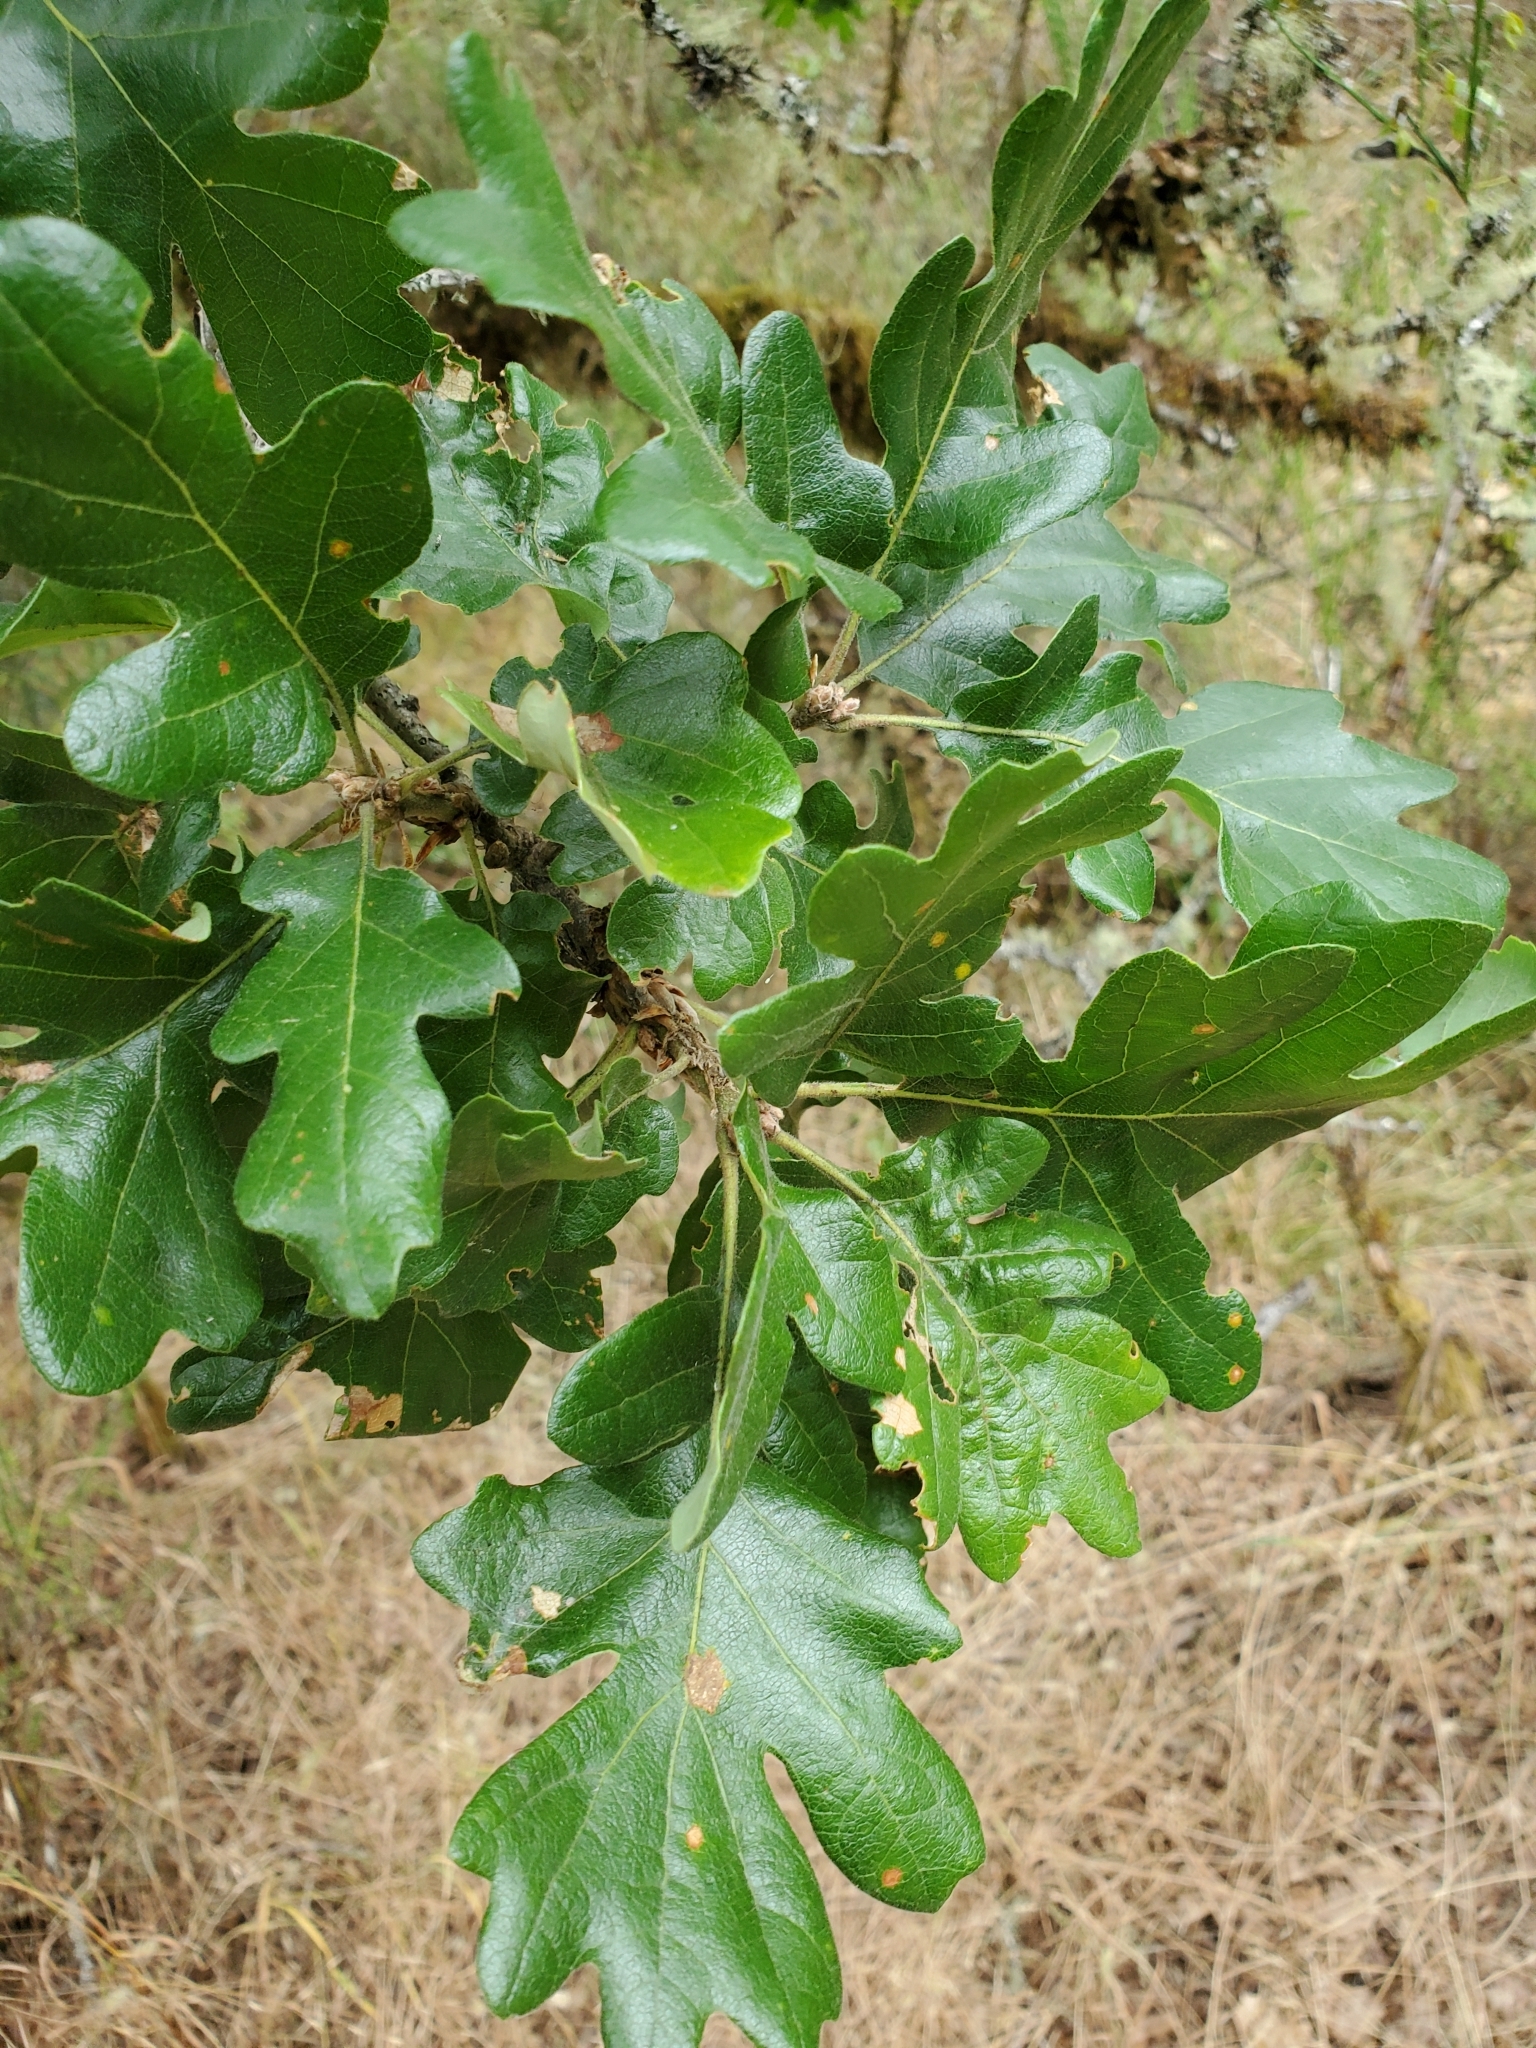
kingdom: Plantae
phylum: Tracheophyta
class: Magnoliopsida
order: Fagales
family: Fagaceae
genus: Quercus
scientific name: Quercus garryana
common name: Garry oak
